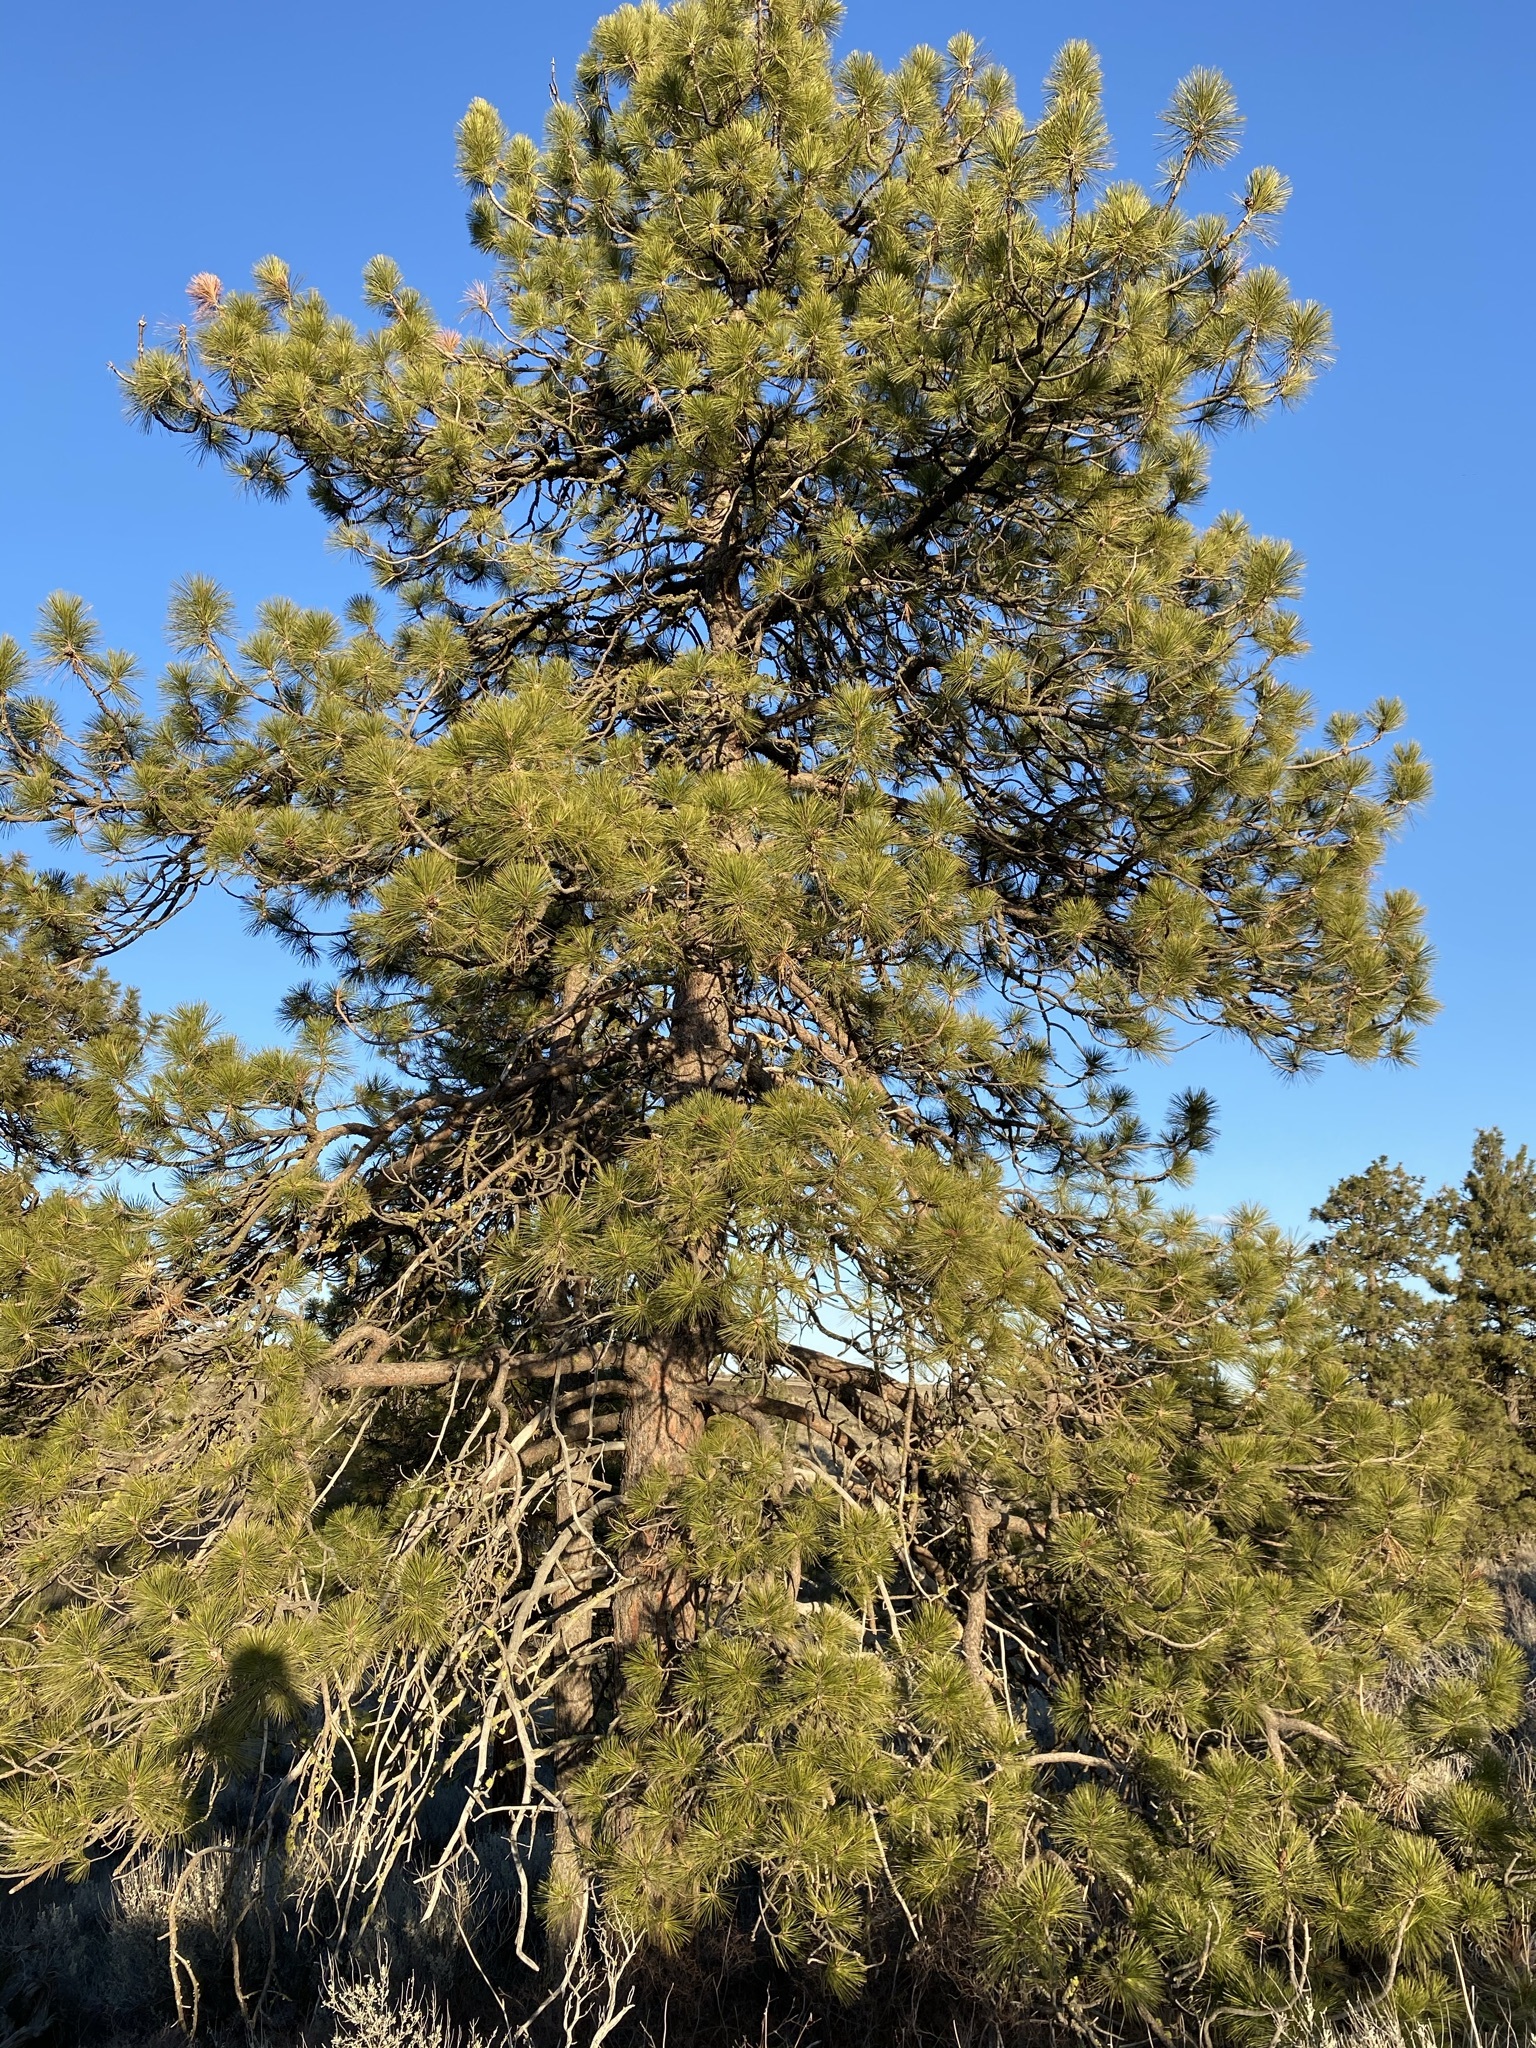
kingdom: Plantae
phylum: Tracheophyta
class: Pinopsida
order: Pinales
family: Pinaceae
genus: Pinus
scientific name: Pinus ponderosa
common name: Western yellow-pine
